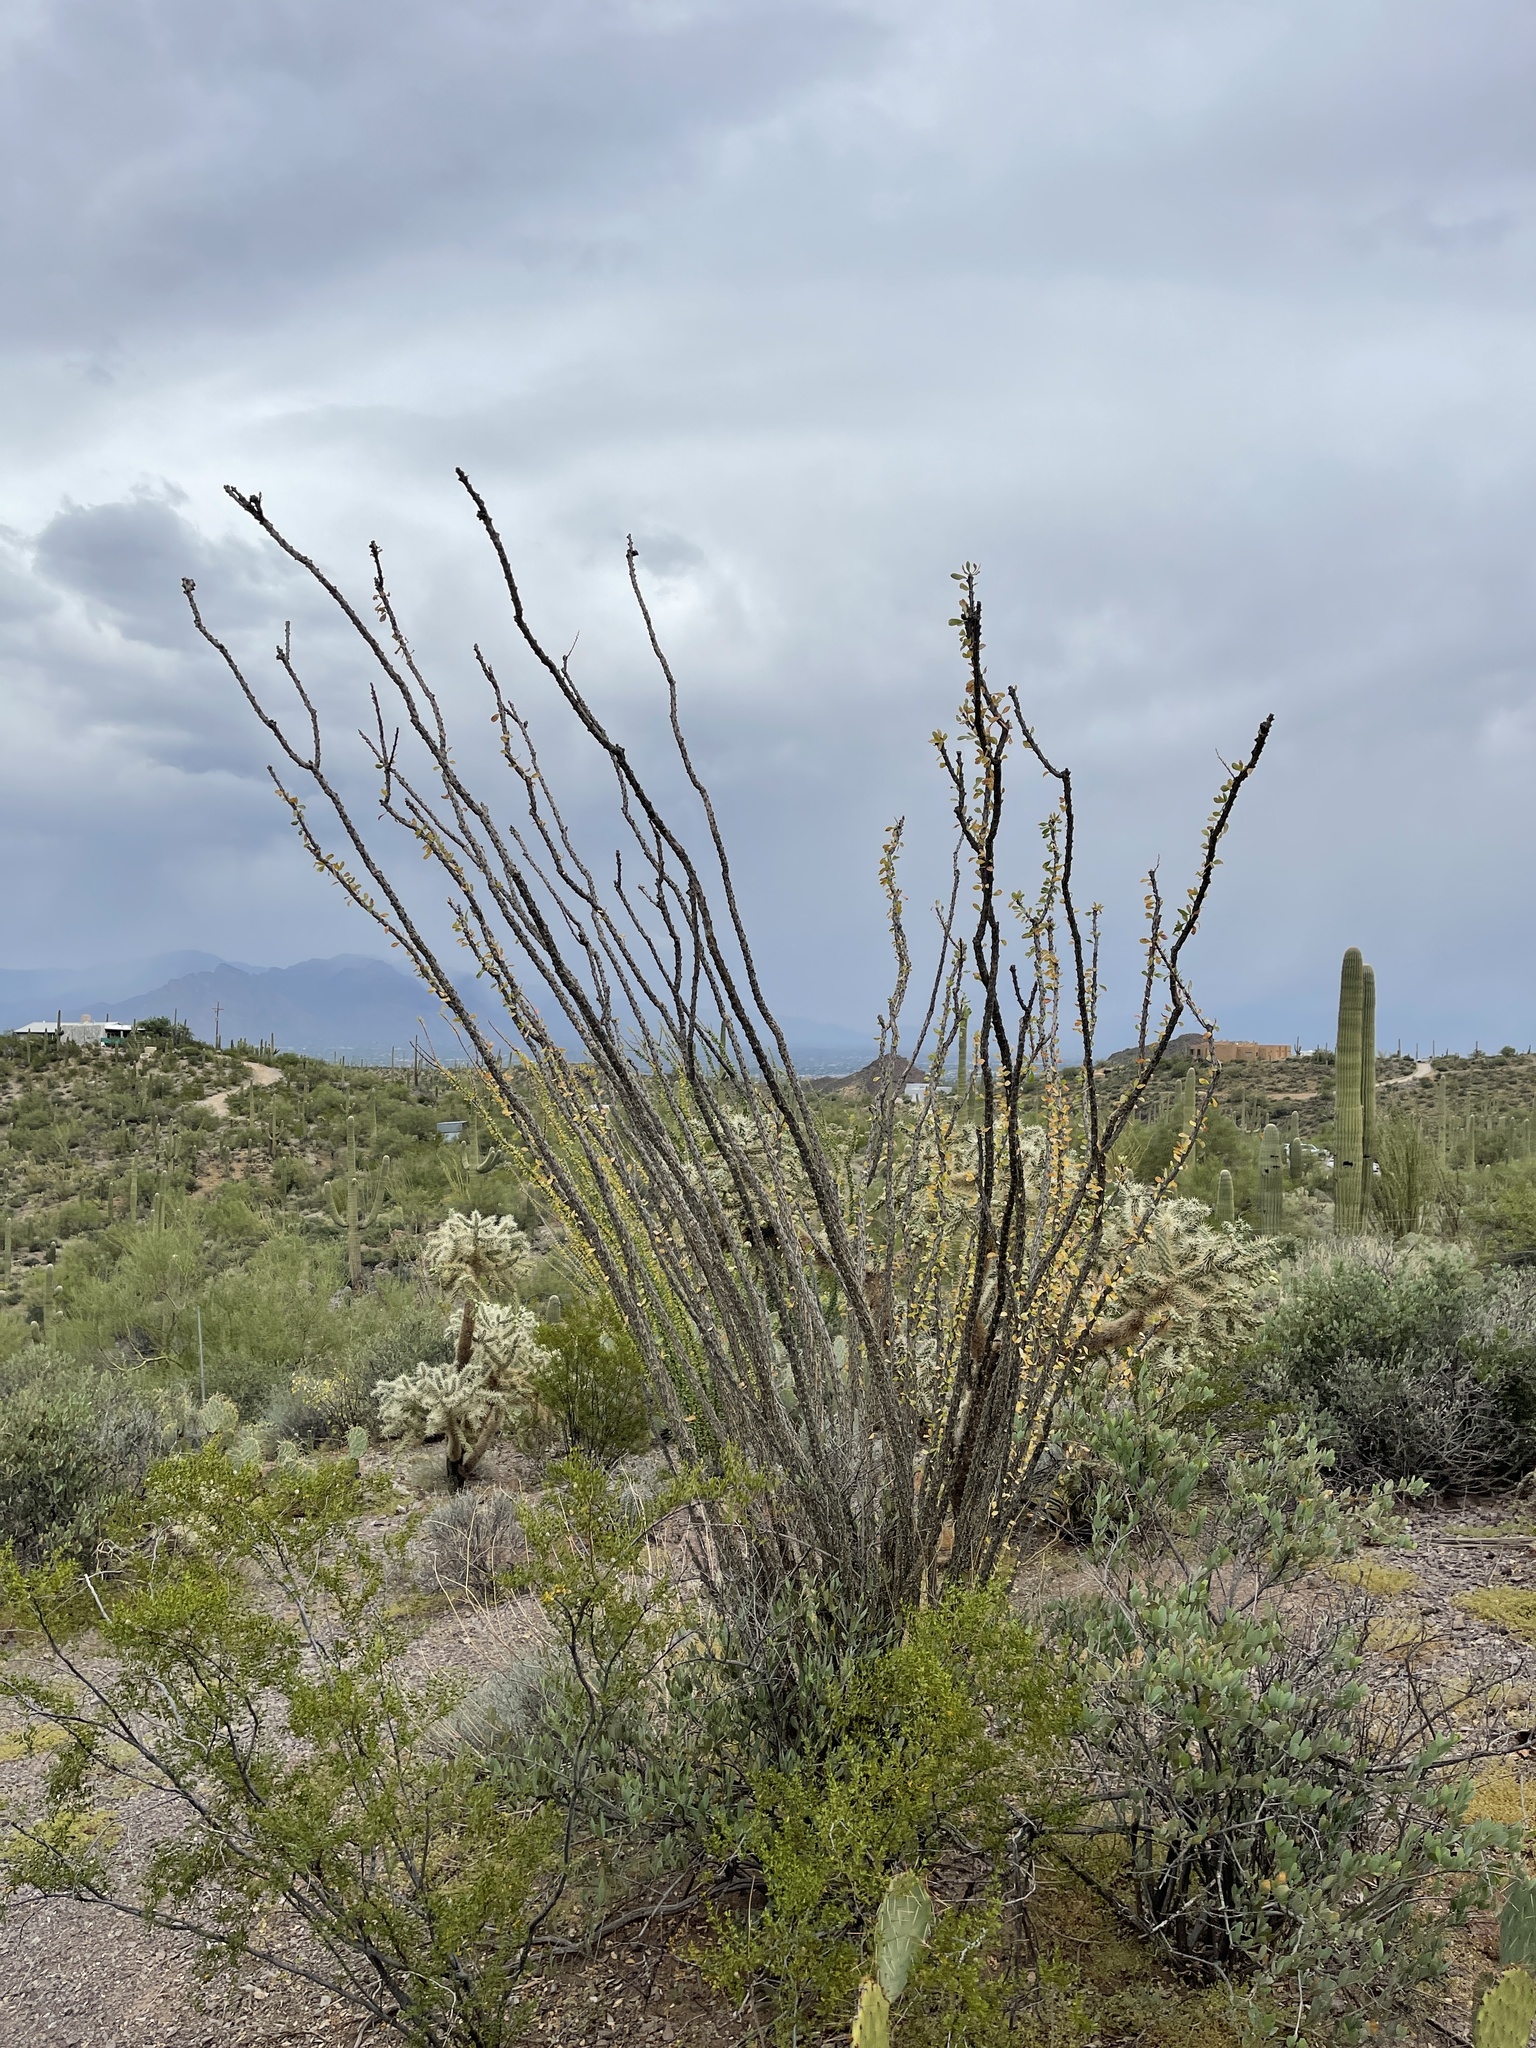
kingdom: Plantae
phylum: Tracheophyta
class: Magnoliopsida
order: Ericales
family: Fouquieriaceae
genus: Fouquieria
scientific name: Fouquieria splendens
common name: Vine-cactus
